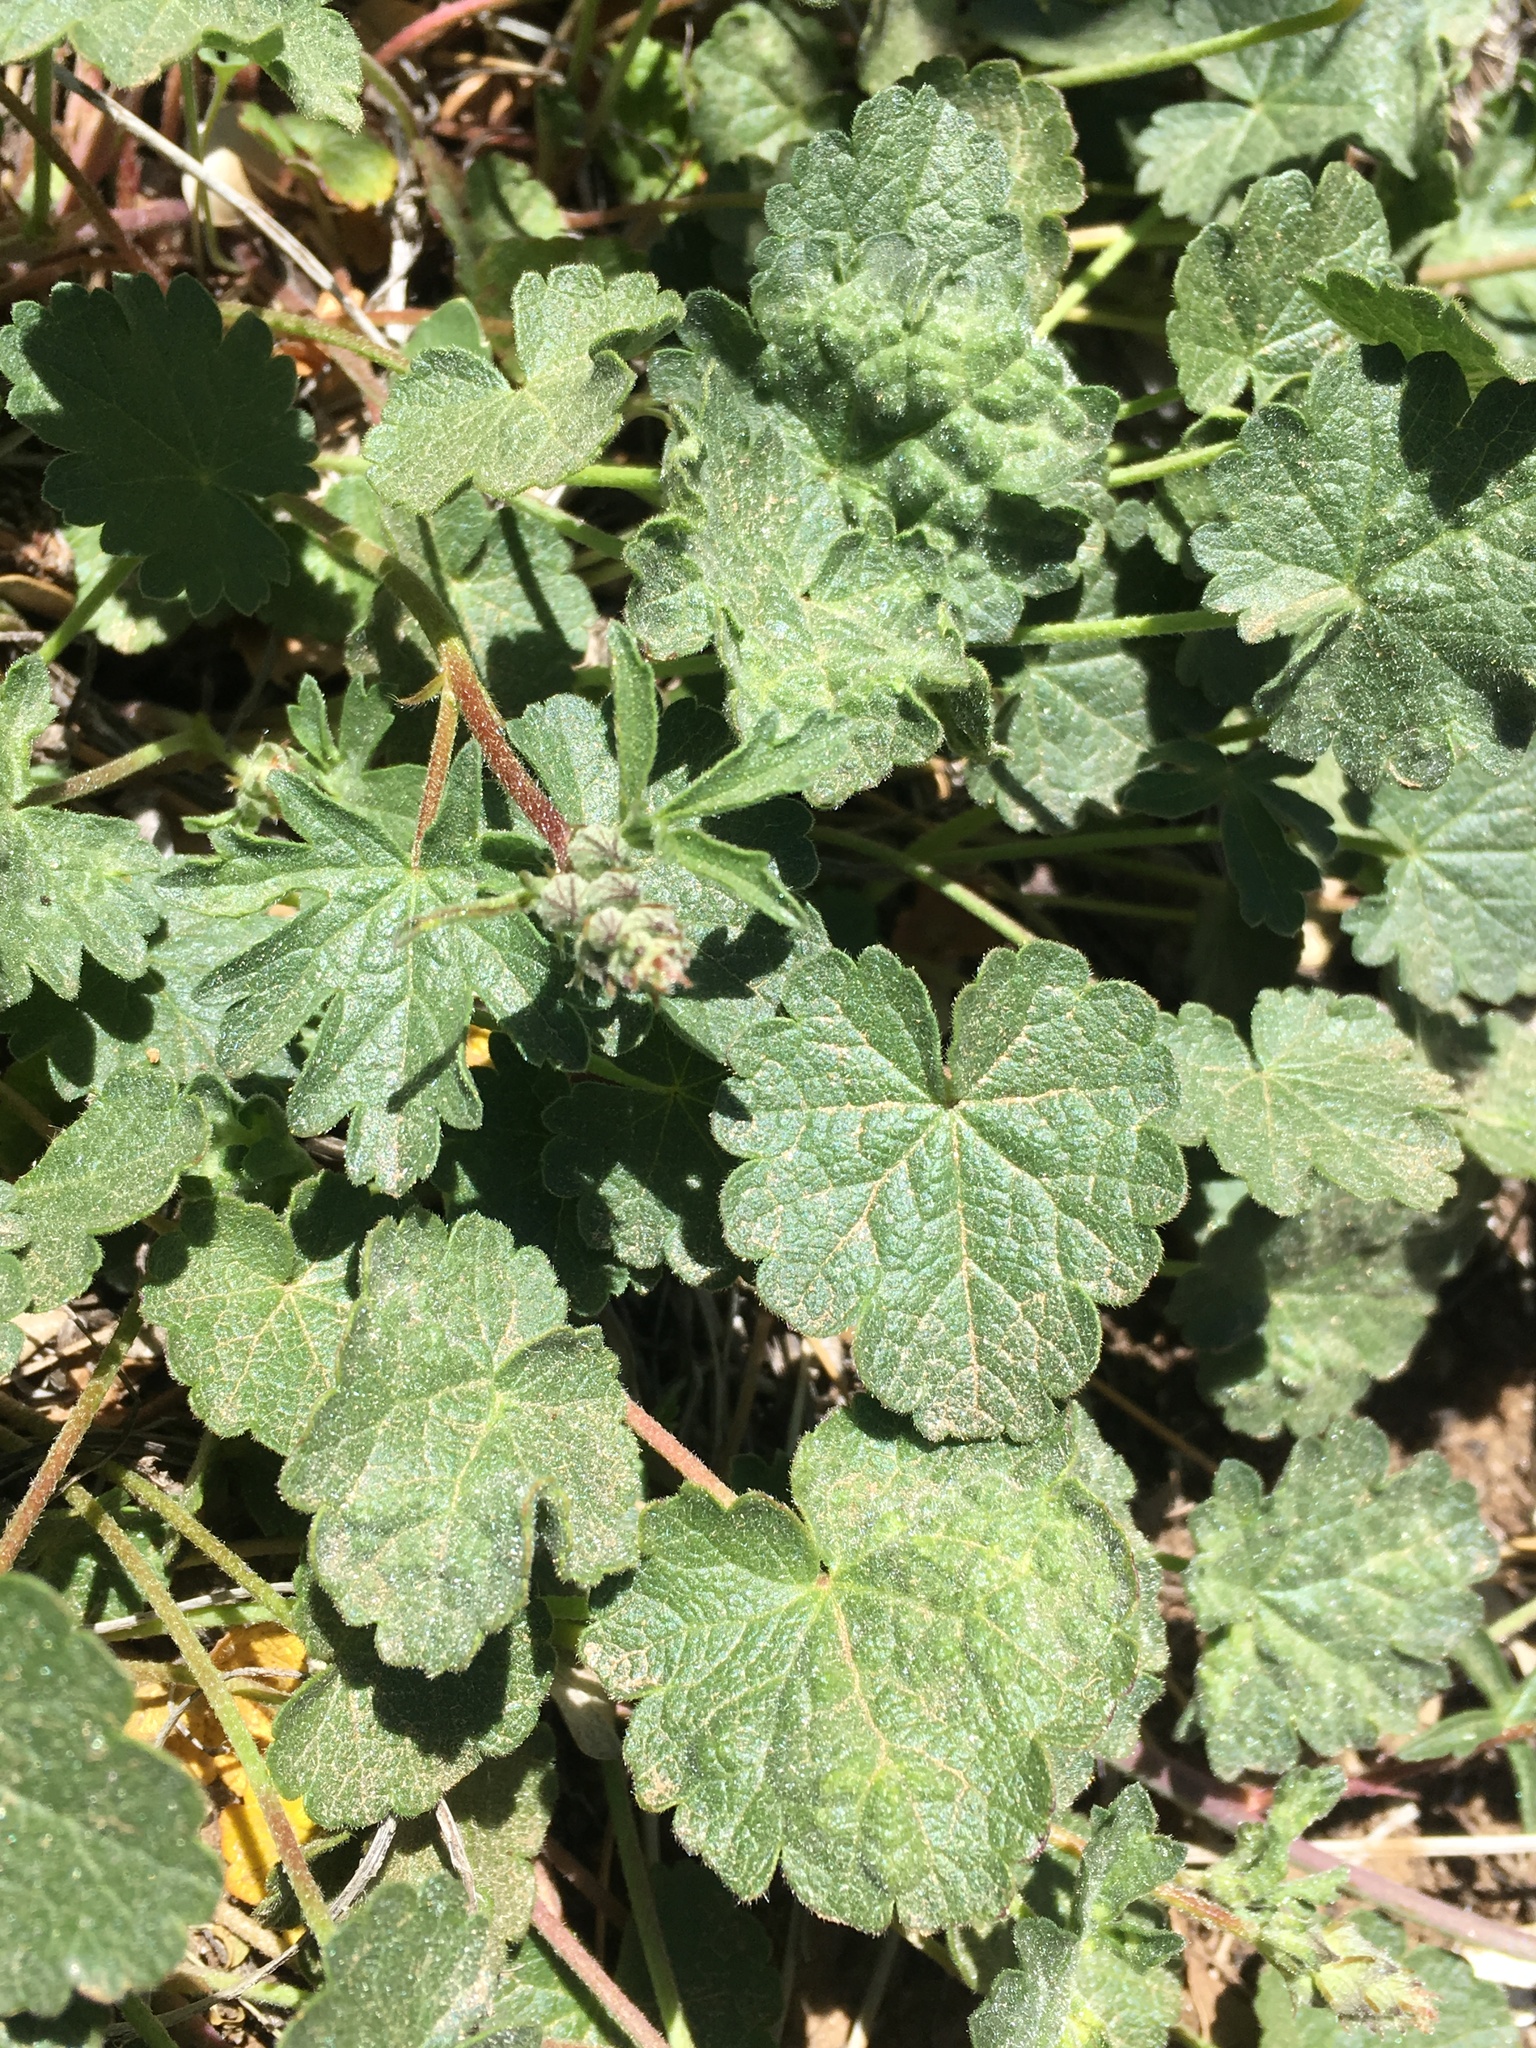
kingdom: Plantae
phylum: Tracheophyta
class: Magnoliopsida
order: Malvales
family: Malvaceae
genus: Sidalcea
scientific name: Sidalcea sparsifolia
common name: Southern checkerbloom
